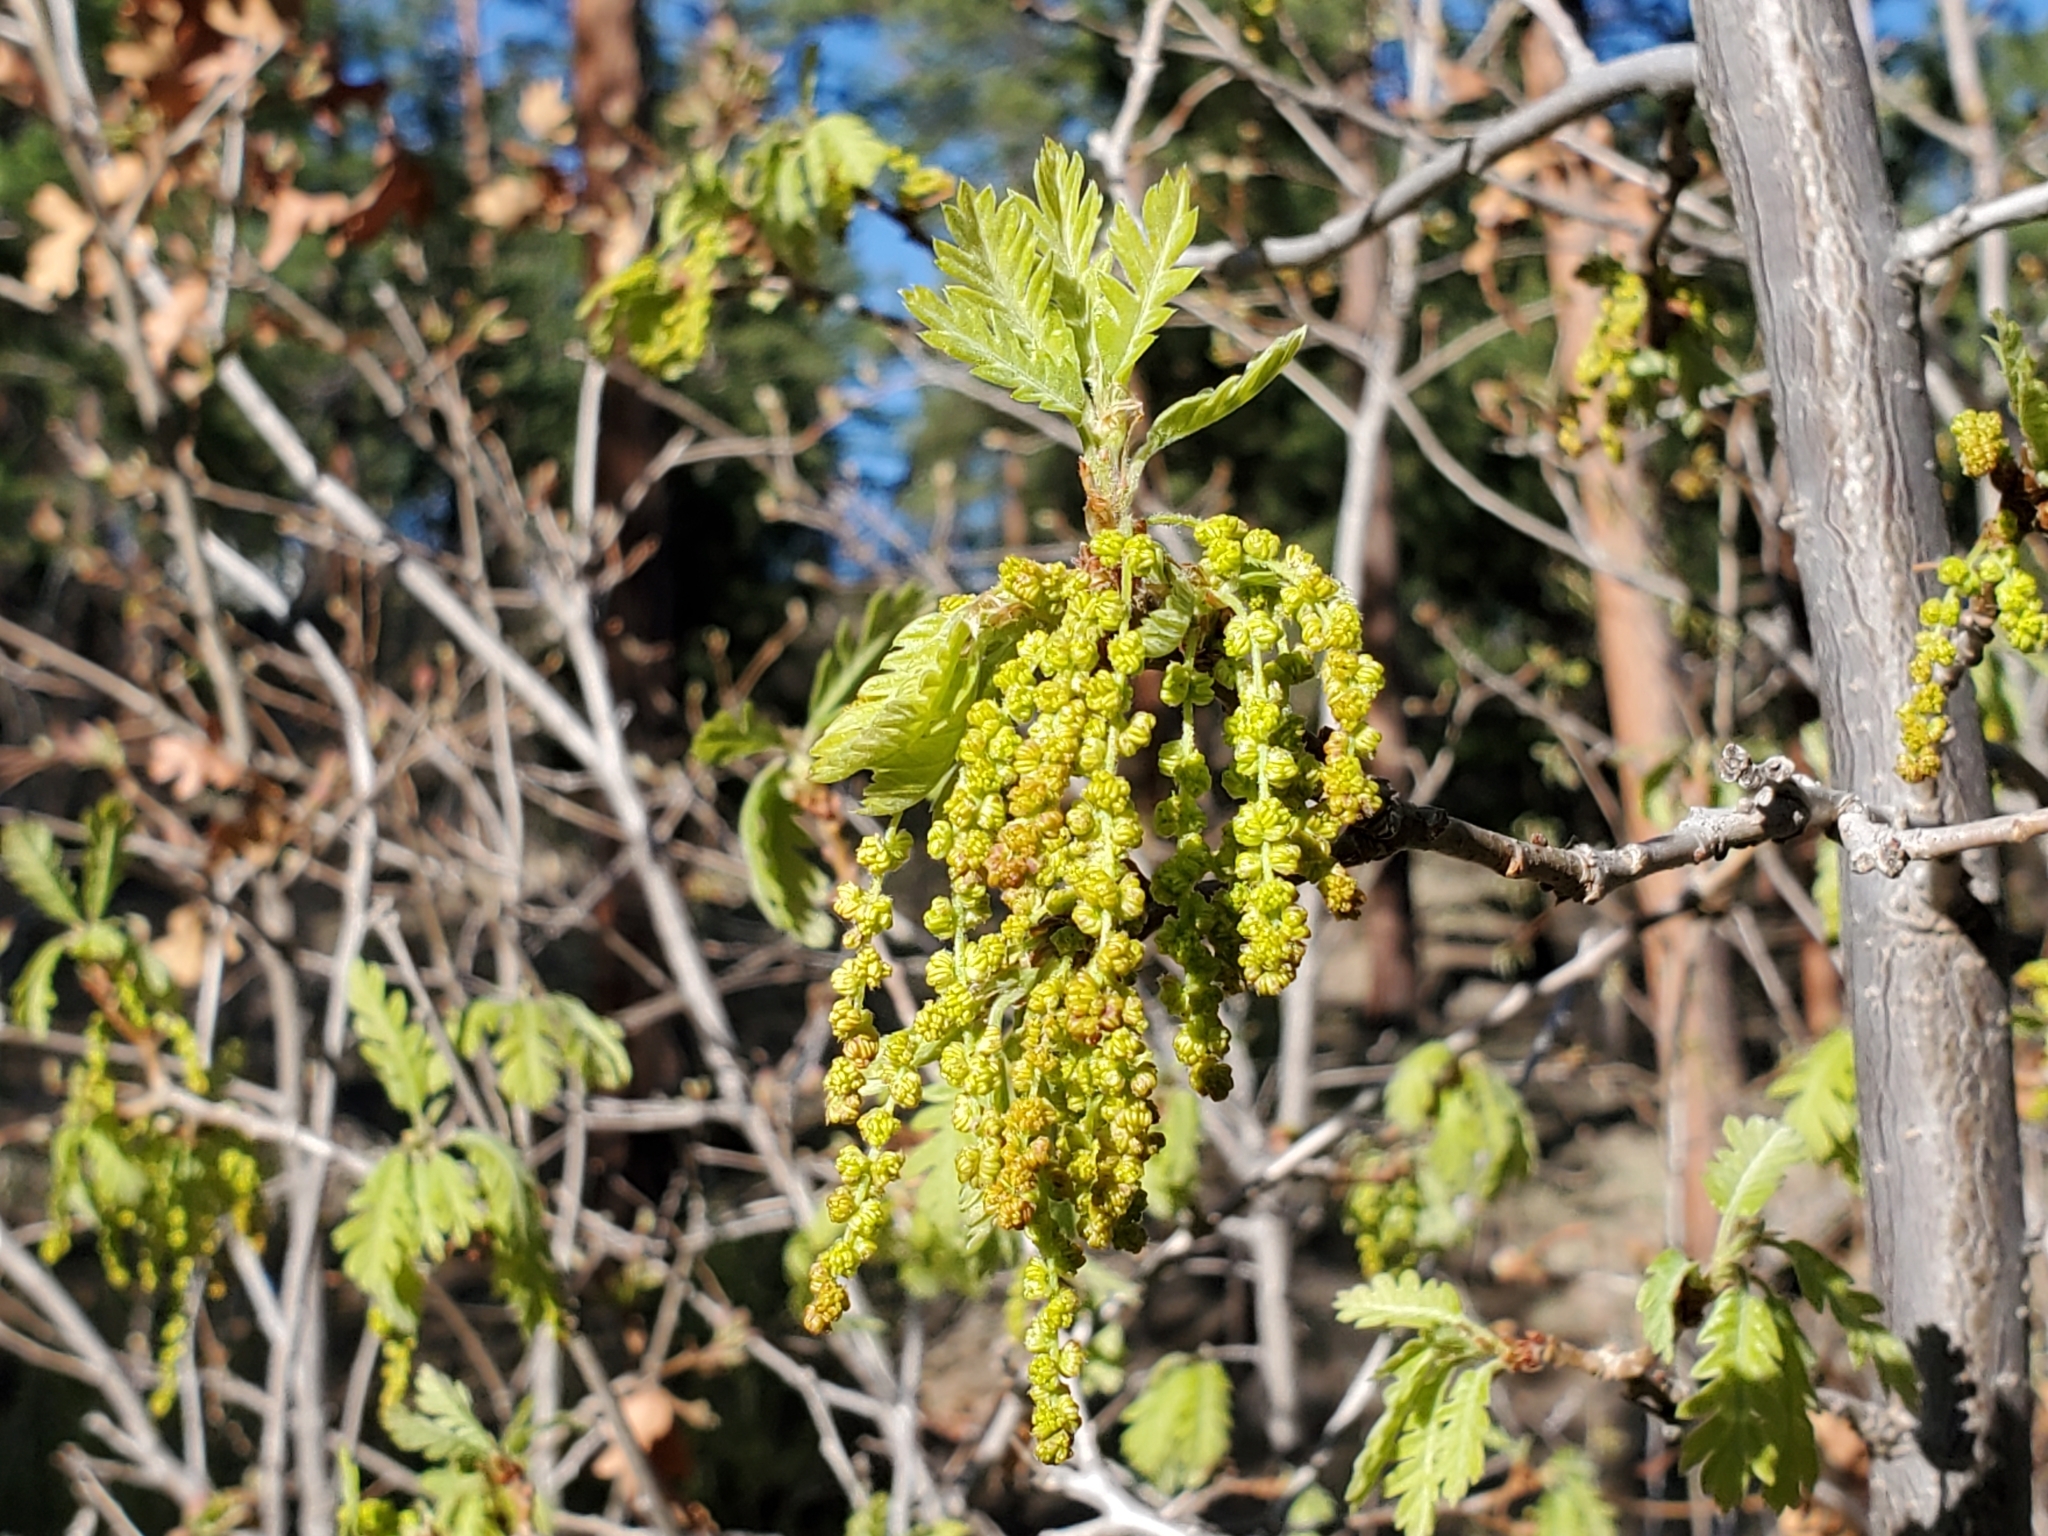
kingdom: Plantae
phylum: Tracheophyta
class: Magnoliopsida
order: Fagales
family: Fagaceae
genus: Quercus
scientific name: Quercus gambelii
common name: Gambel oak
